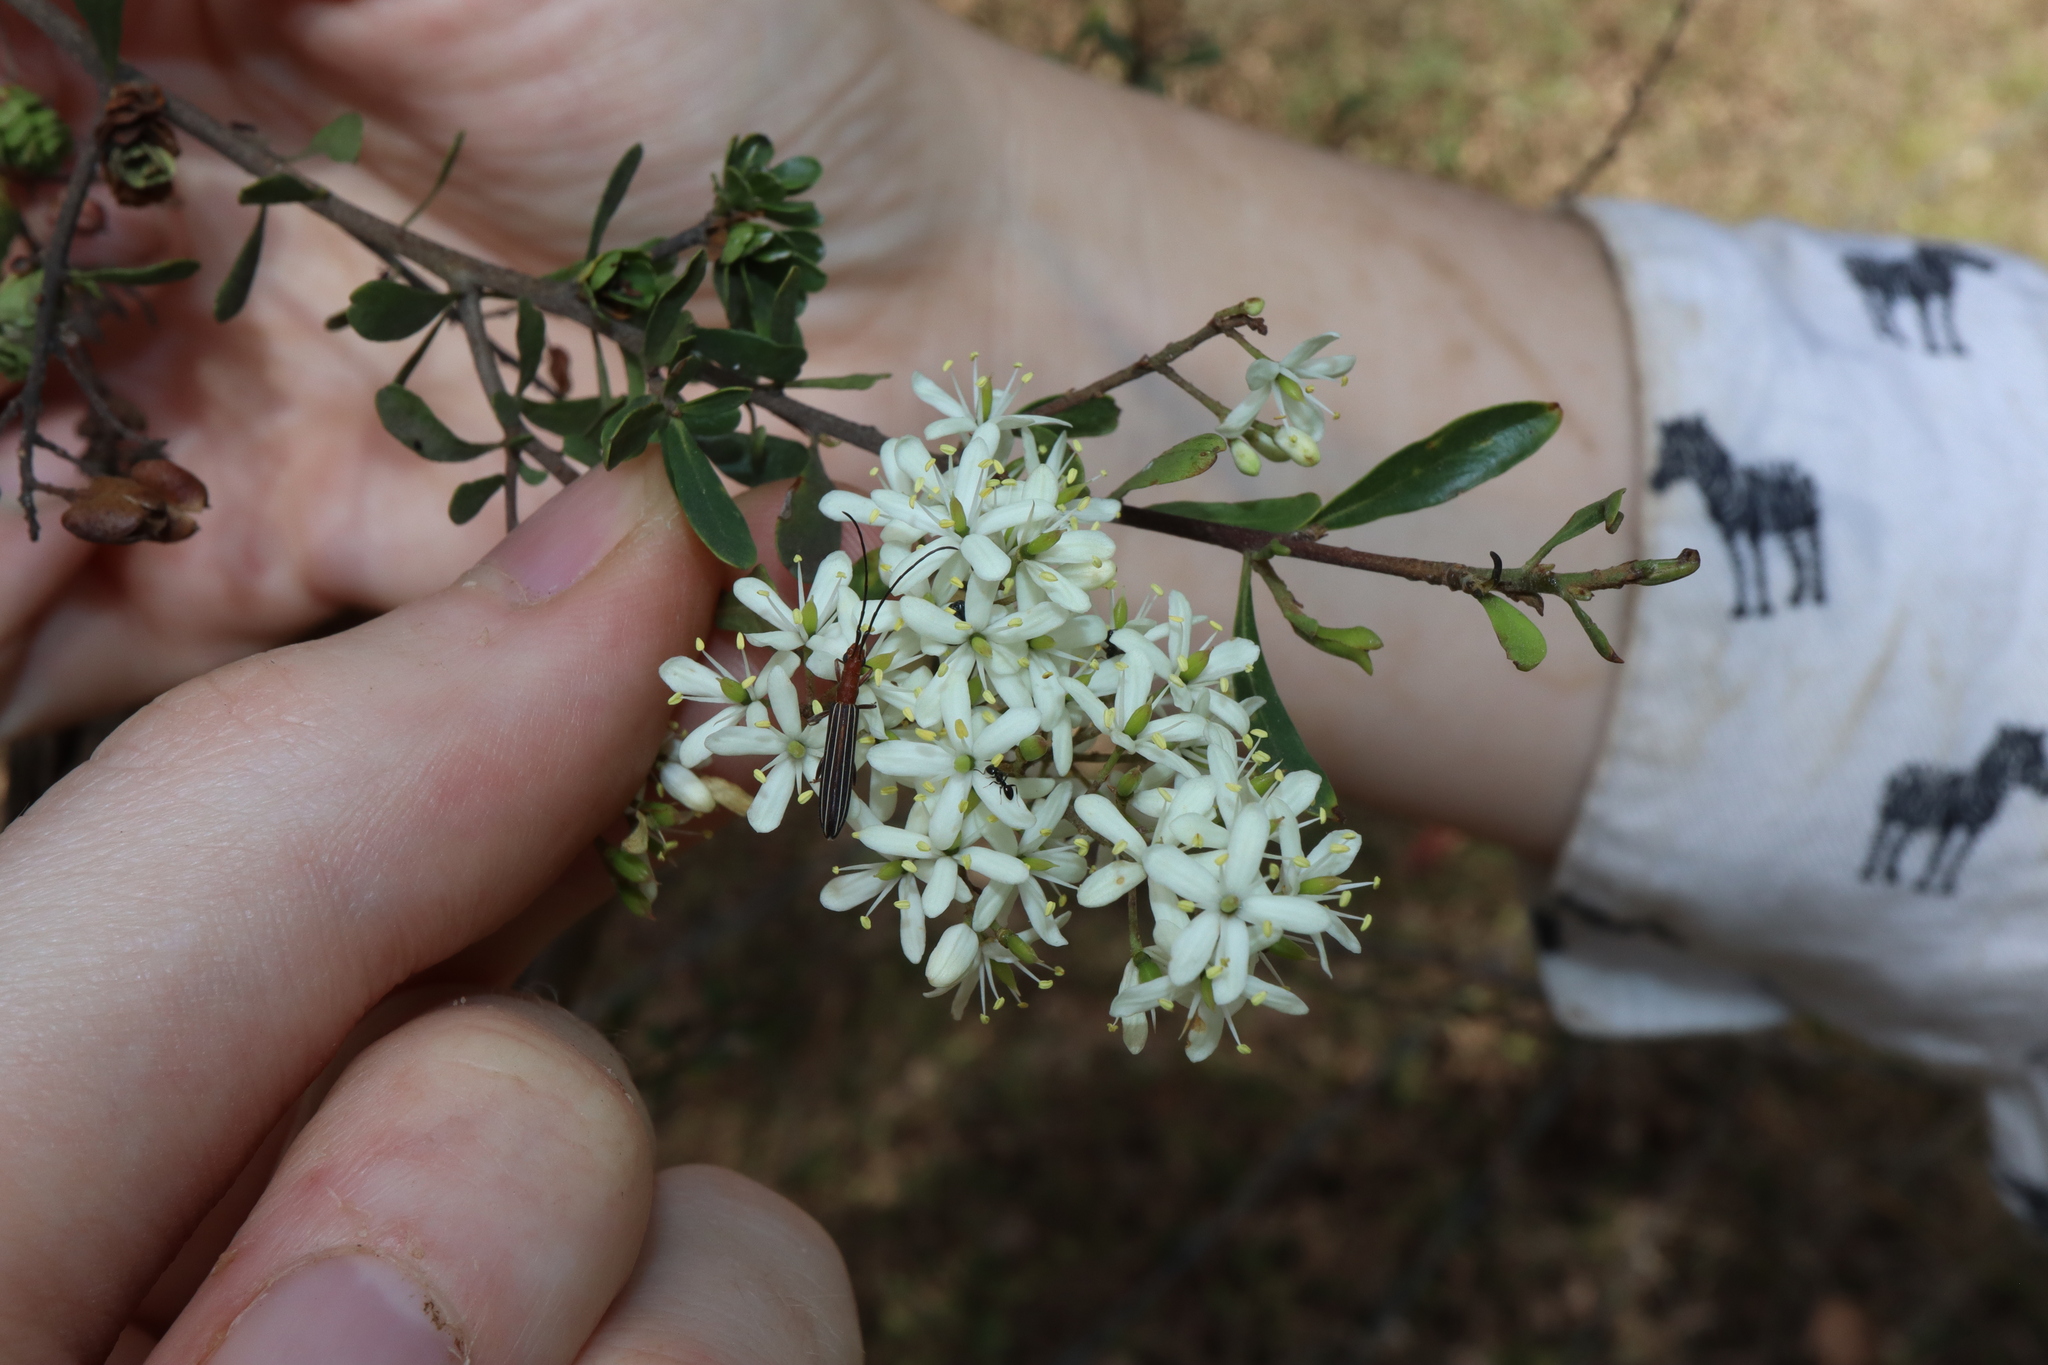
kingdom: Plantae
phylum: Tracheophyta
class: Magnoliopsida
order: Apiales
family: Pittosporaceae
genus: Bursaria
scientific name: Bursaria spinosa
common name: Australian blackthorn
